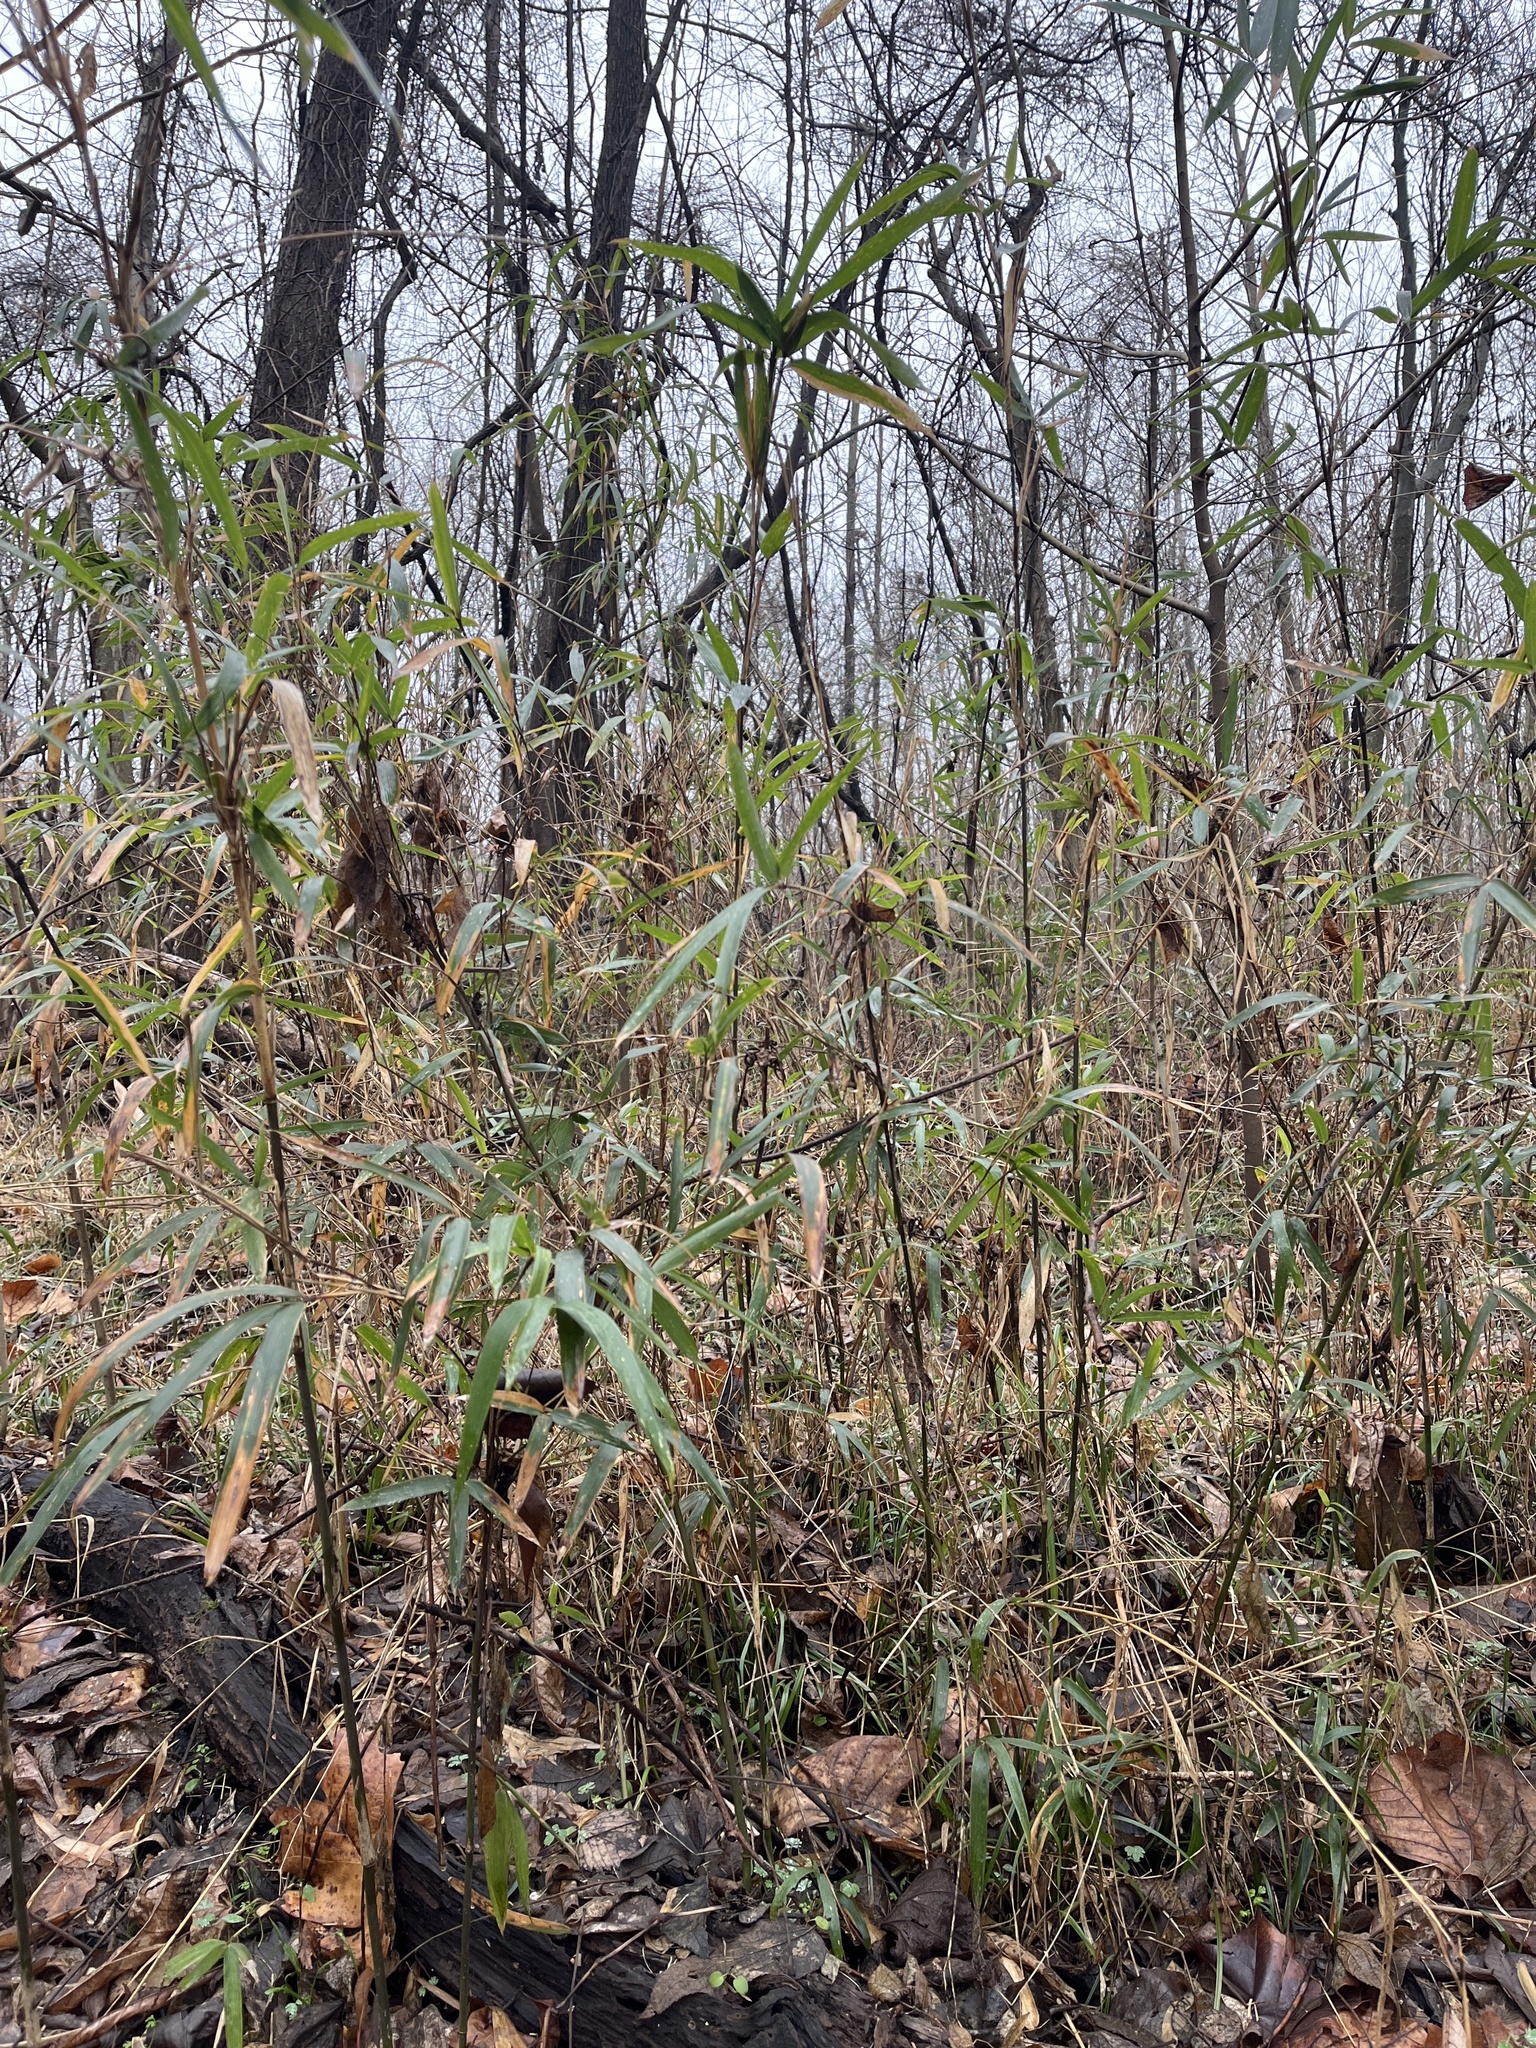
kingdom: Plantae
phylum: Tracheophyta
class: Liliopsida
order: Poales
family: Poaceae
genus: Arundinaria
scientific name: Arundinaria gigantea
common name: Giant cane
